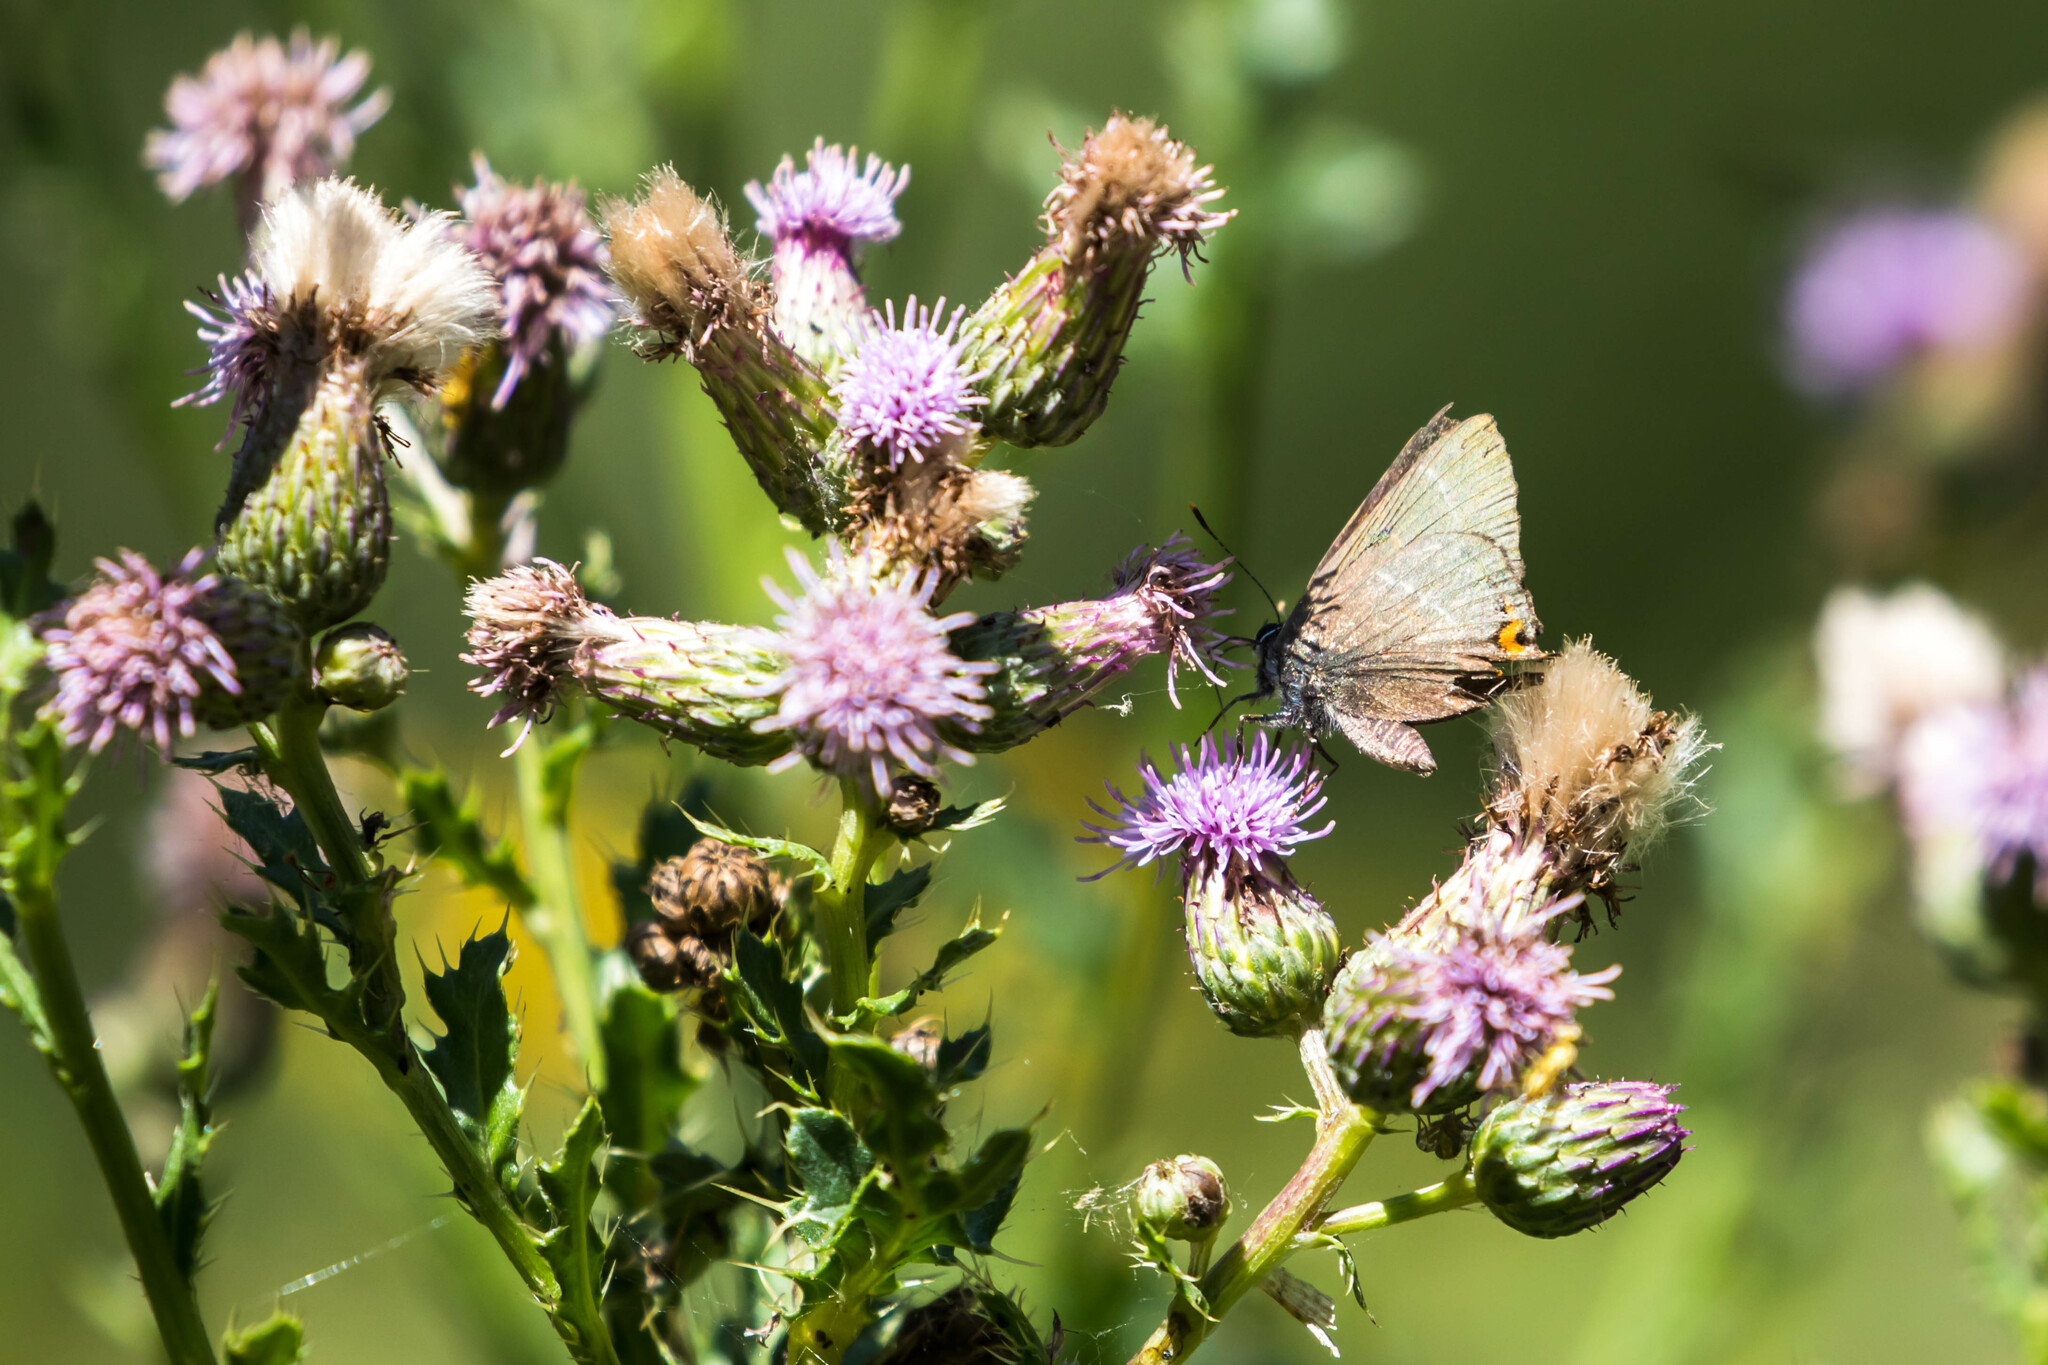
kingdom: Animalia
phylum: Arthropoda
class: Insecta
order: Lepidoptera
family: Lycaenidae
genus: Satyrium
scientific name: Satyrium w-album
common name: White-letter hairstreak
